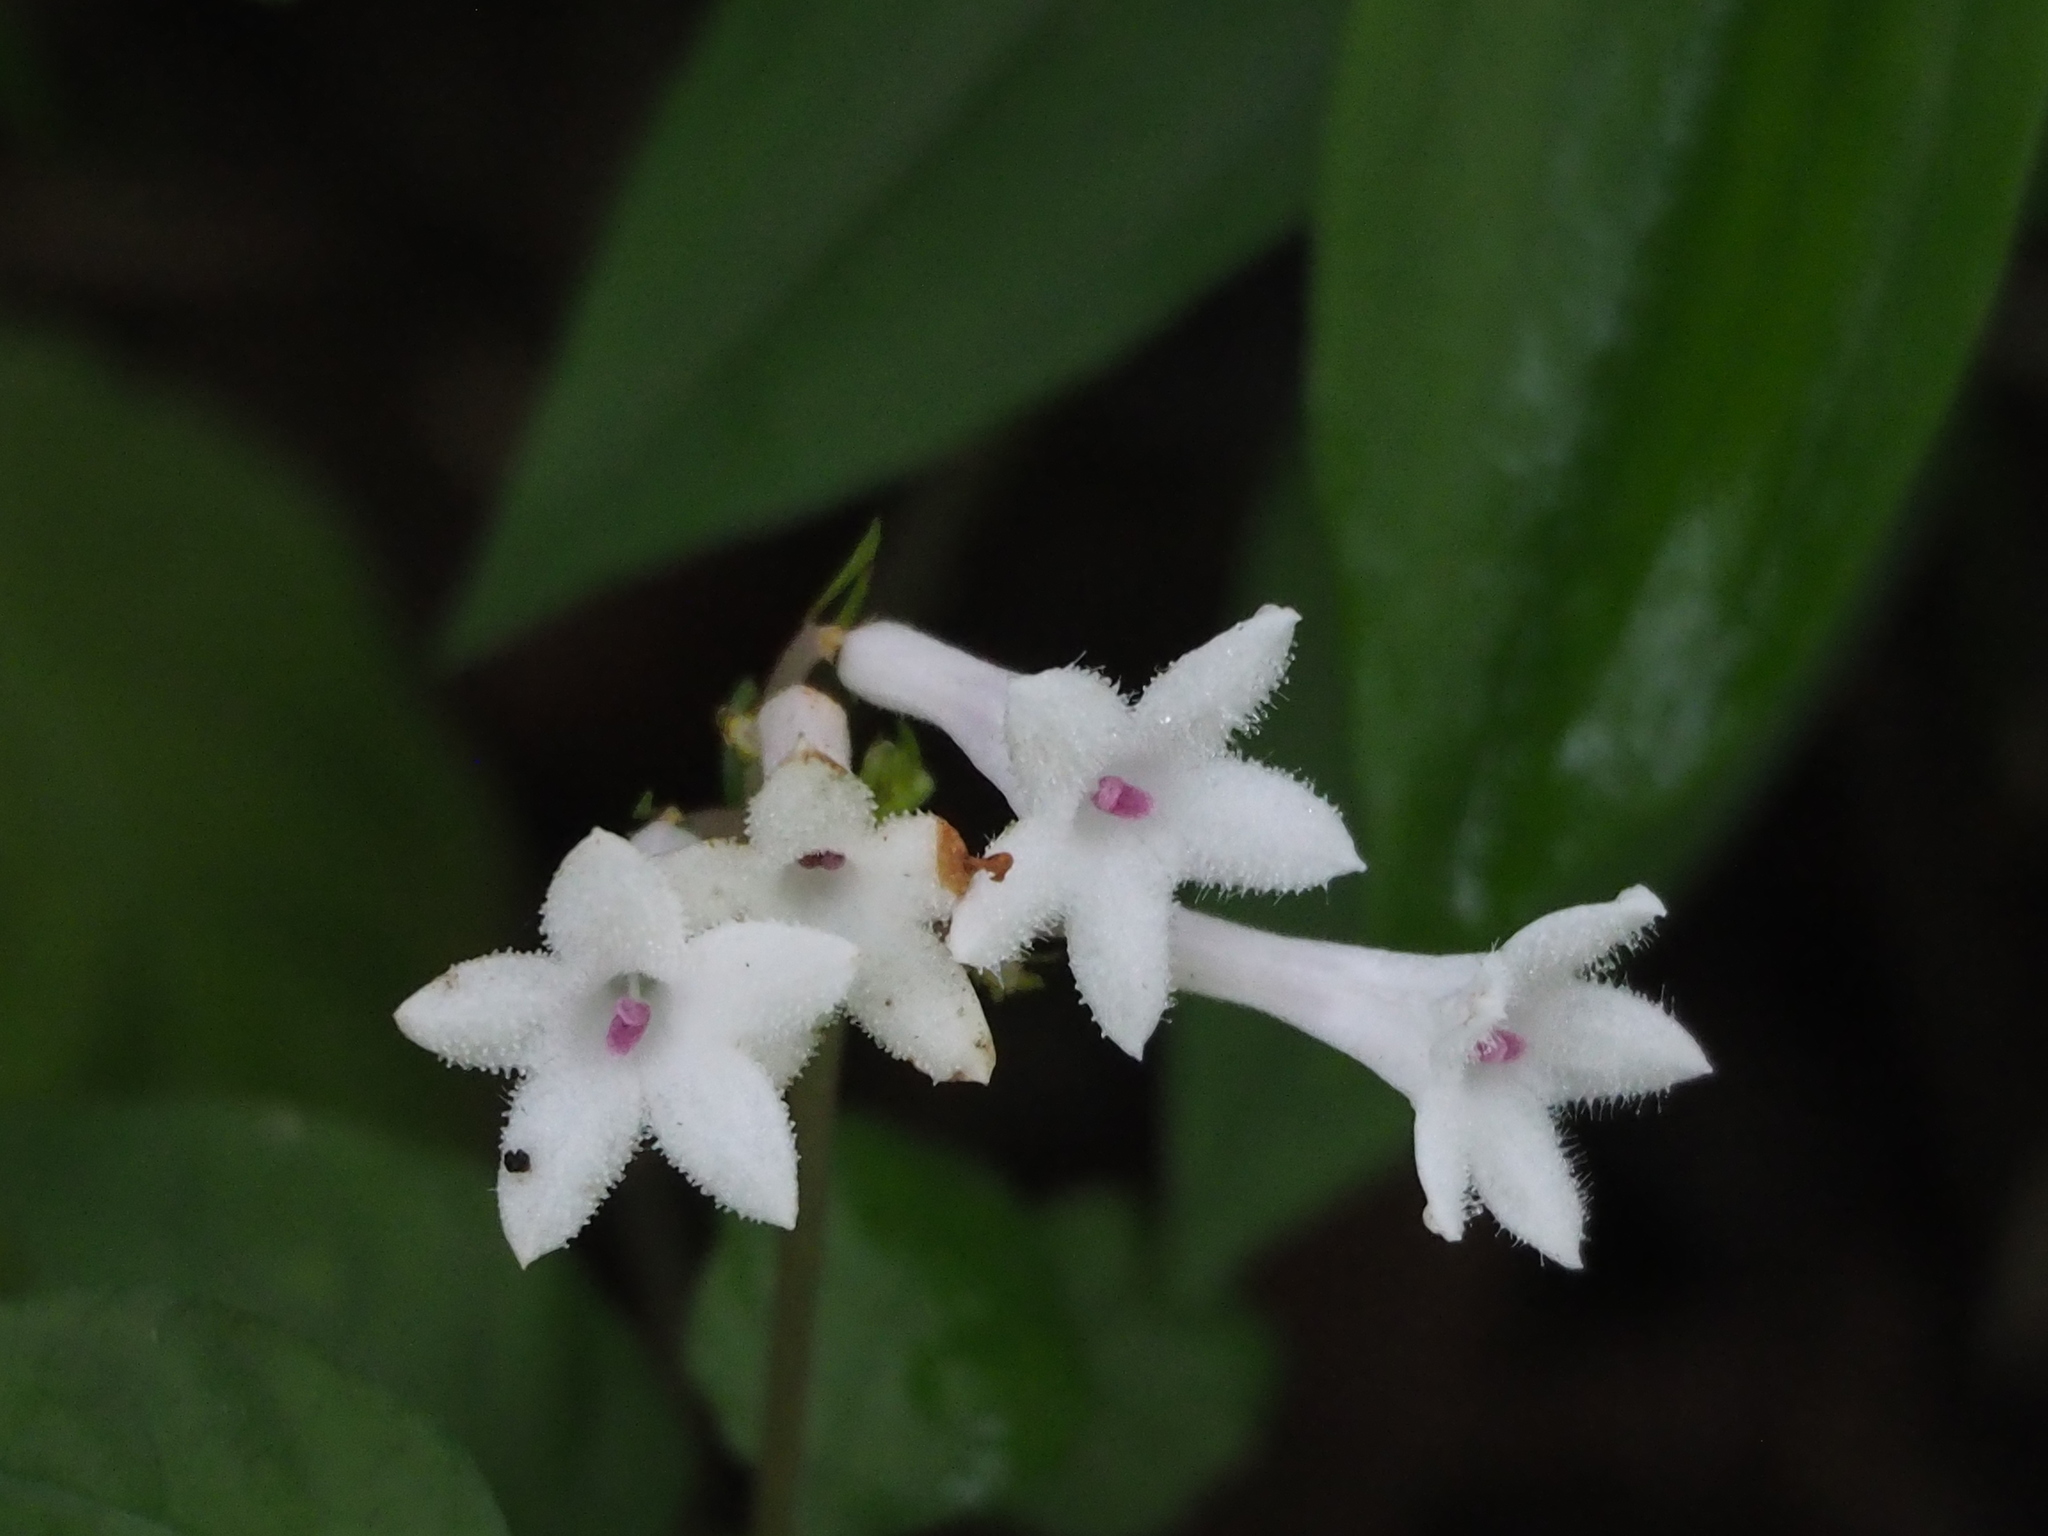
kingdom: Plantae
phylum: Tracheophyta
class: Magnoliopsida
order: Gentianales
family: Rubiaceae
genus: Ophiorrhiza
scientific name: Ophiorrhiza japonica
